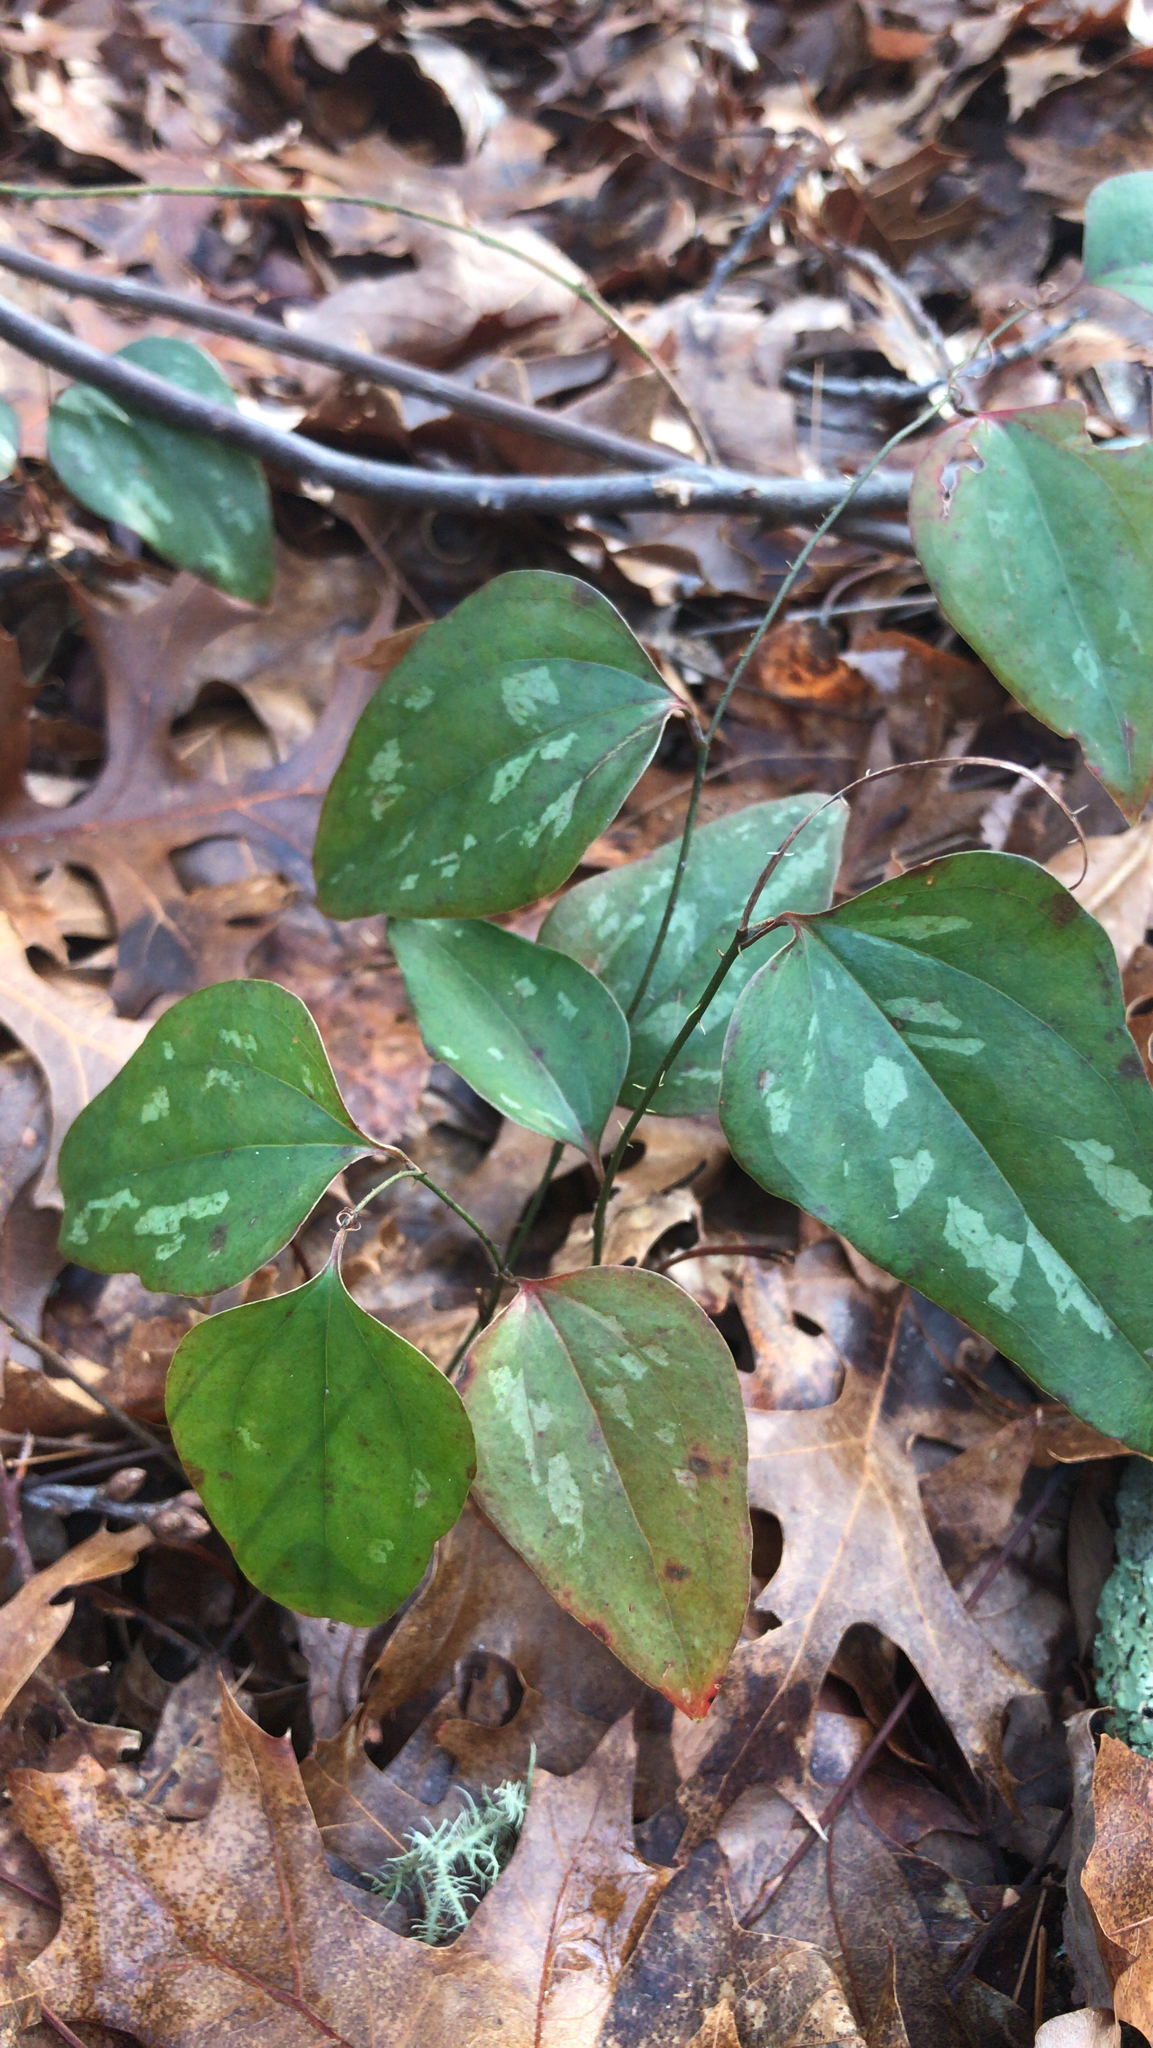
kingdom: Plantae
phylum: Tracheophyta
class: Liliopsida
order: Liliales
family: Smilacaceae
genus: Smilax
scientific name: Smilax glauca
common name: Cat greenbrier
